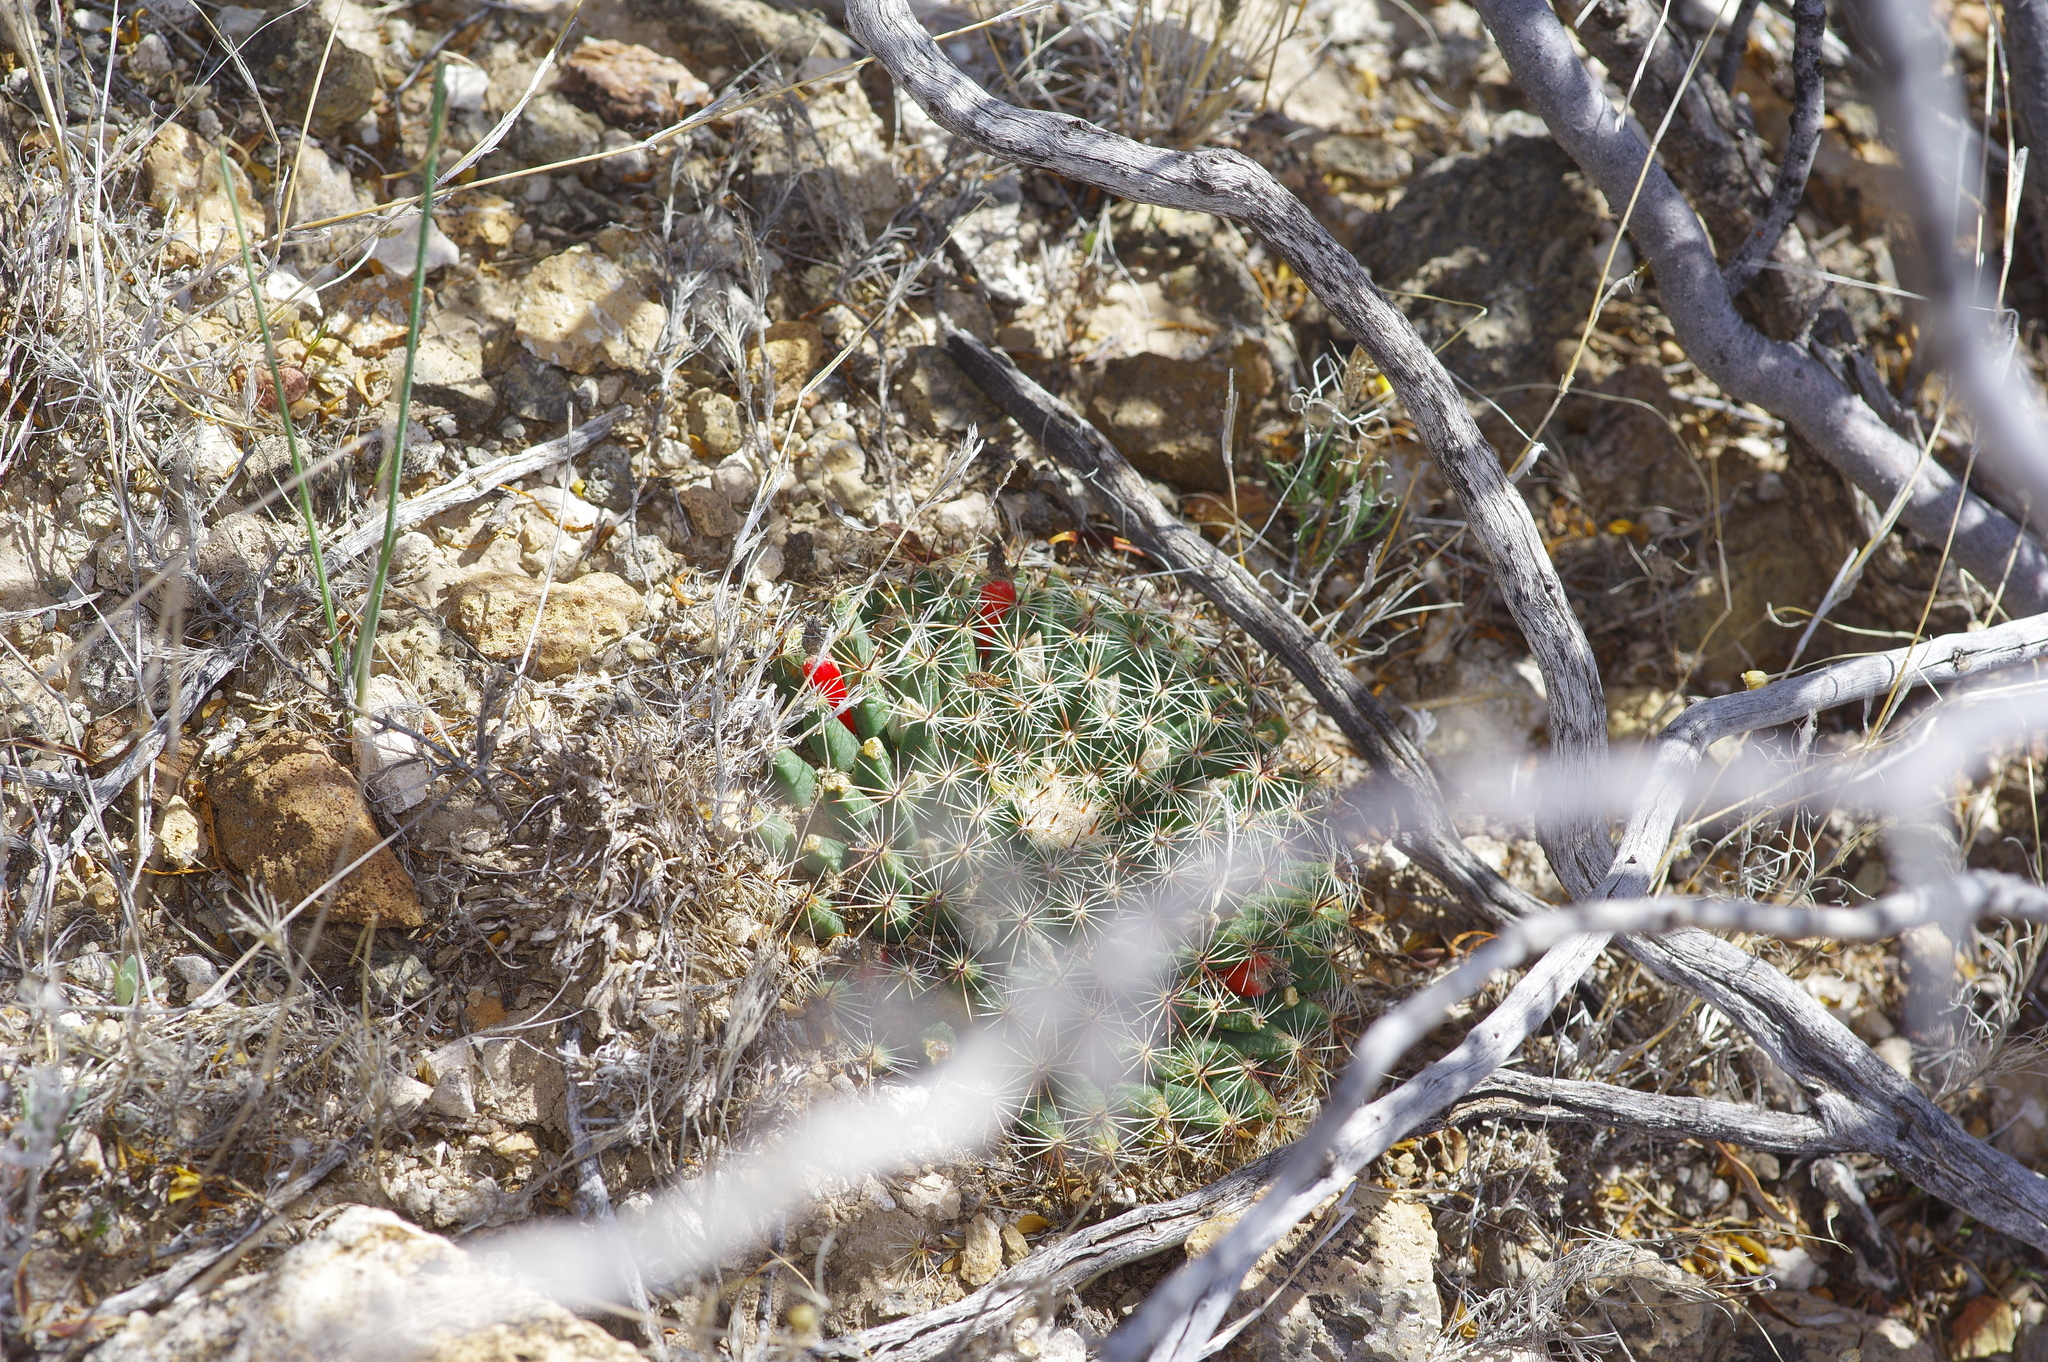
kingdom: Plantae
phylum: Tracheophyta
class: Magnoliopsida
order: Caryophyllales
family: Cactaceae
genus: Mammillaria
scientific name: Mammillaria heyderi
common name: Little nipple cactus
